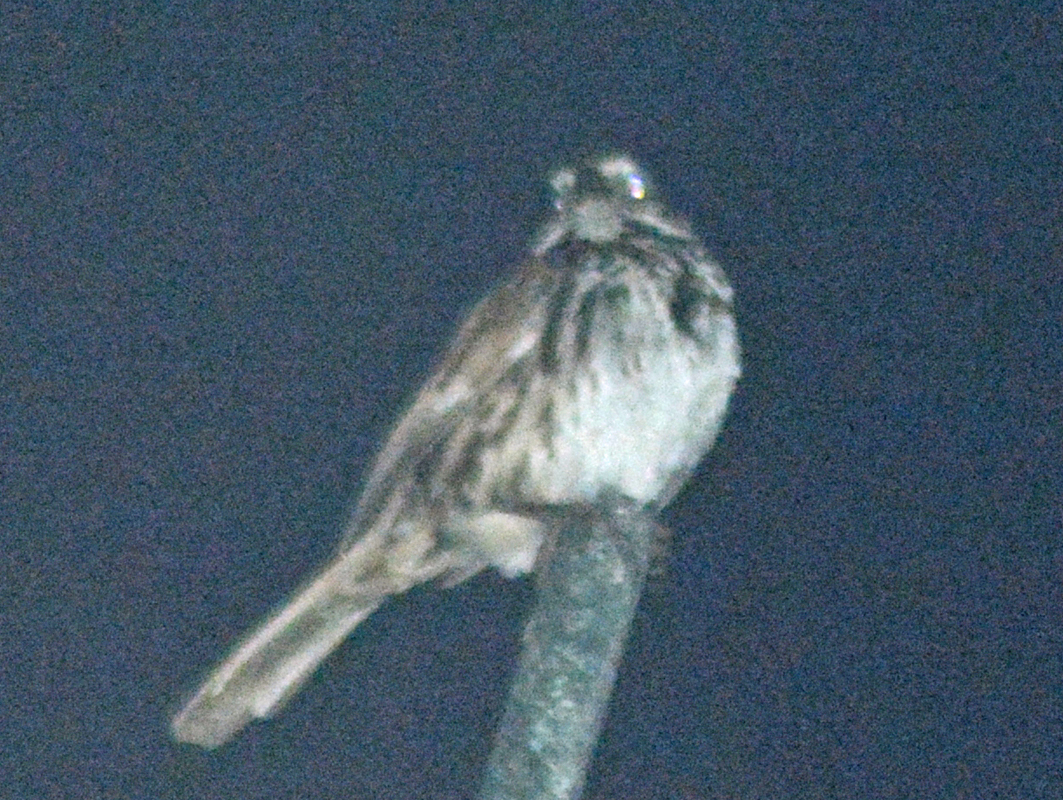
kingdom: Animalia
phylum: Chordata
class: Aves
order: Passeriformes
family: Passerellidae
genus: Melospiza
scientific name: Melospiza melodia
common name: Song sparrow
